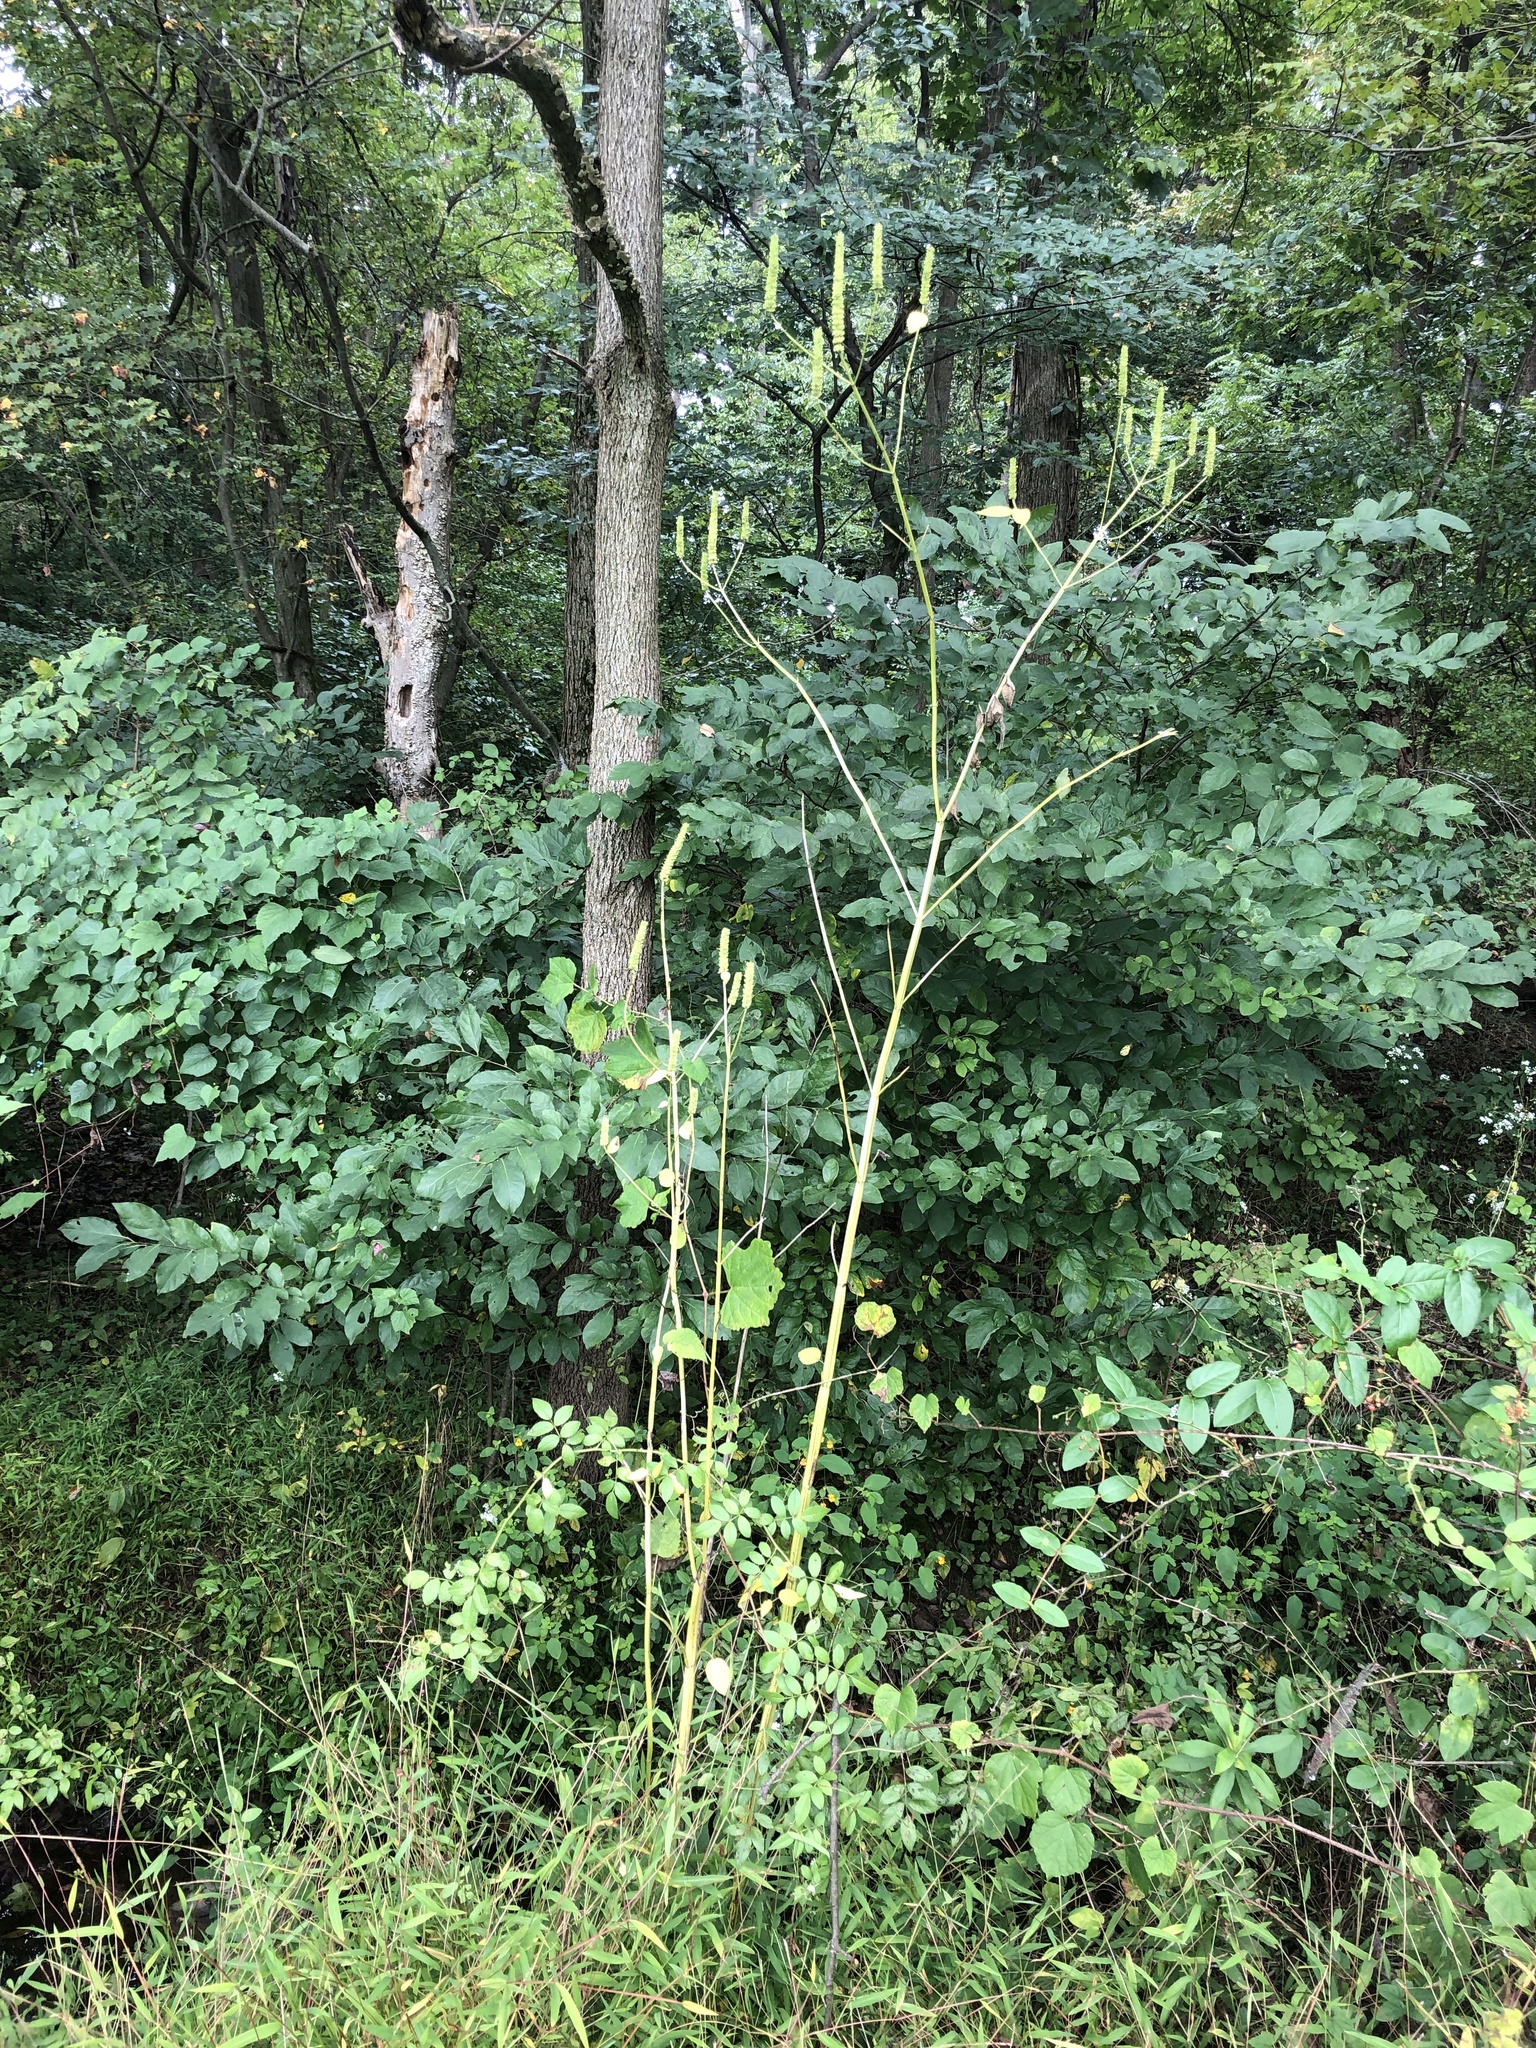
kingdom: Plantae
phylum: Tracheophyta
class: Magnoliopsida
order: Lamiales
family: Lamiaceae
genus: Agastache
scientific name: Agastache nepetoides
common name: Catnip giant hyssop
